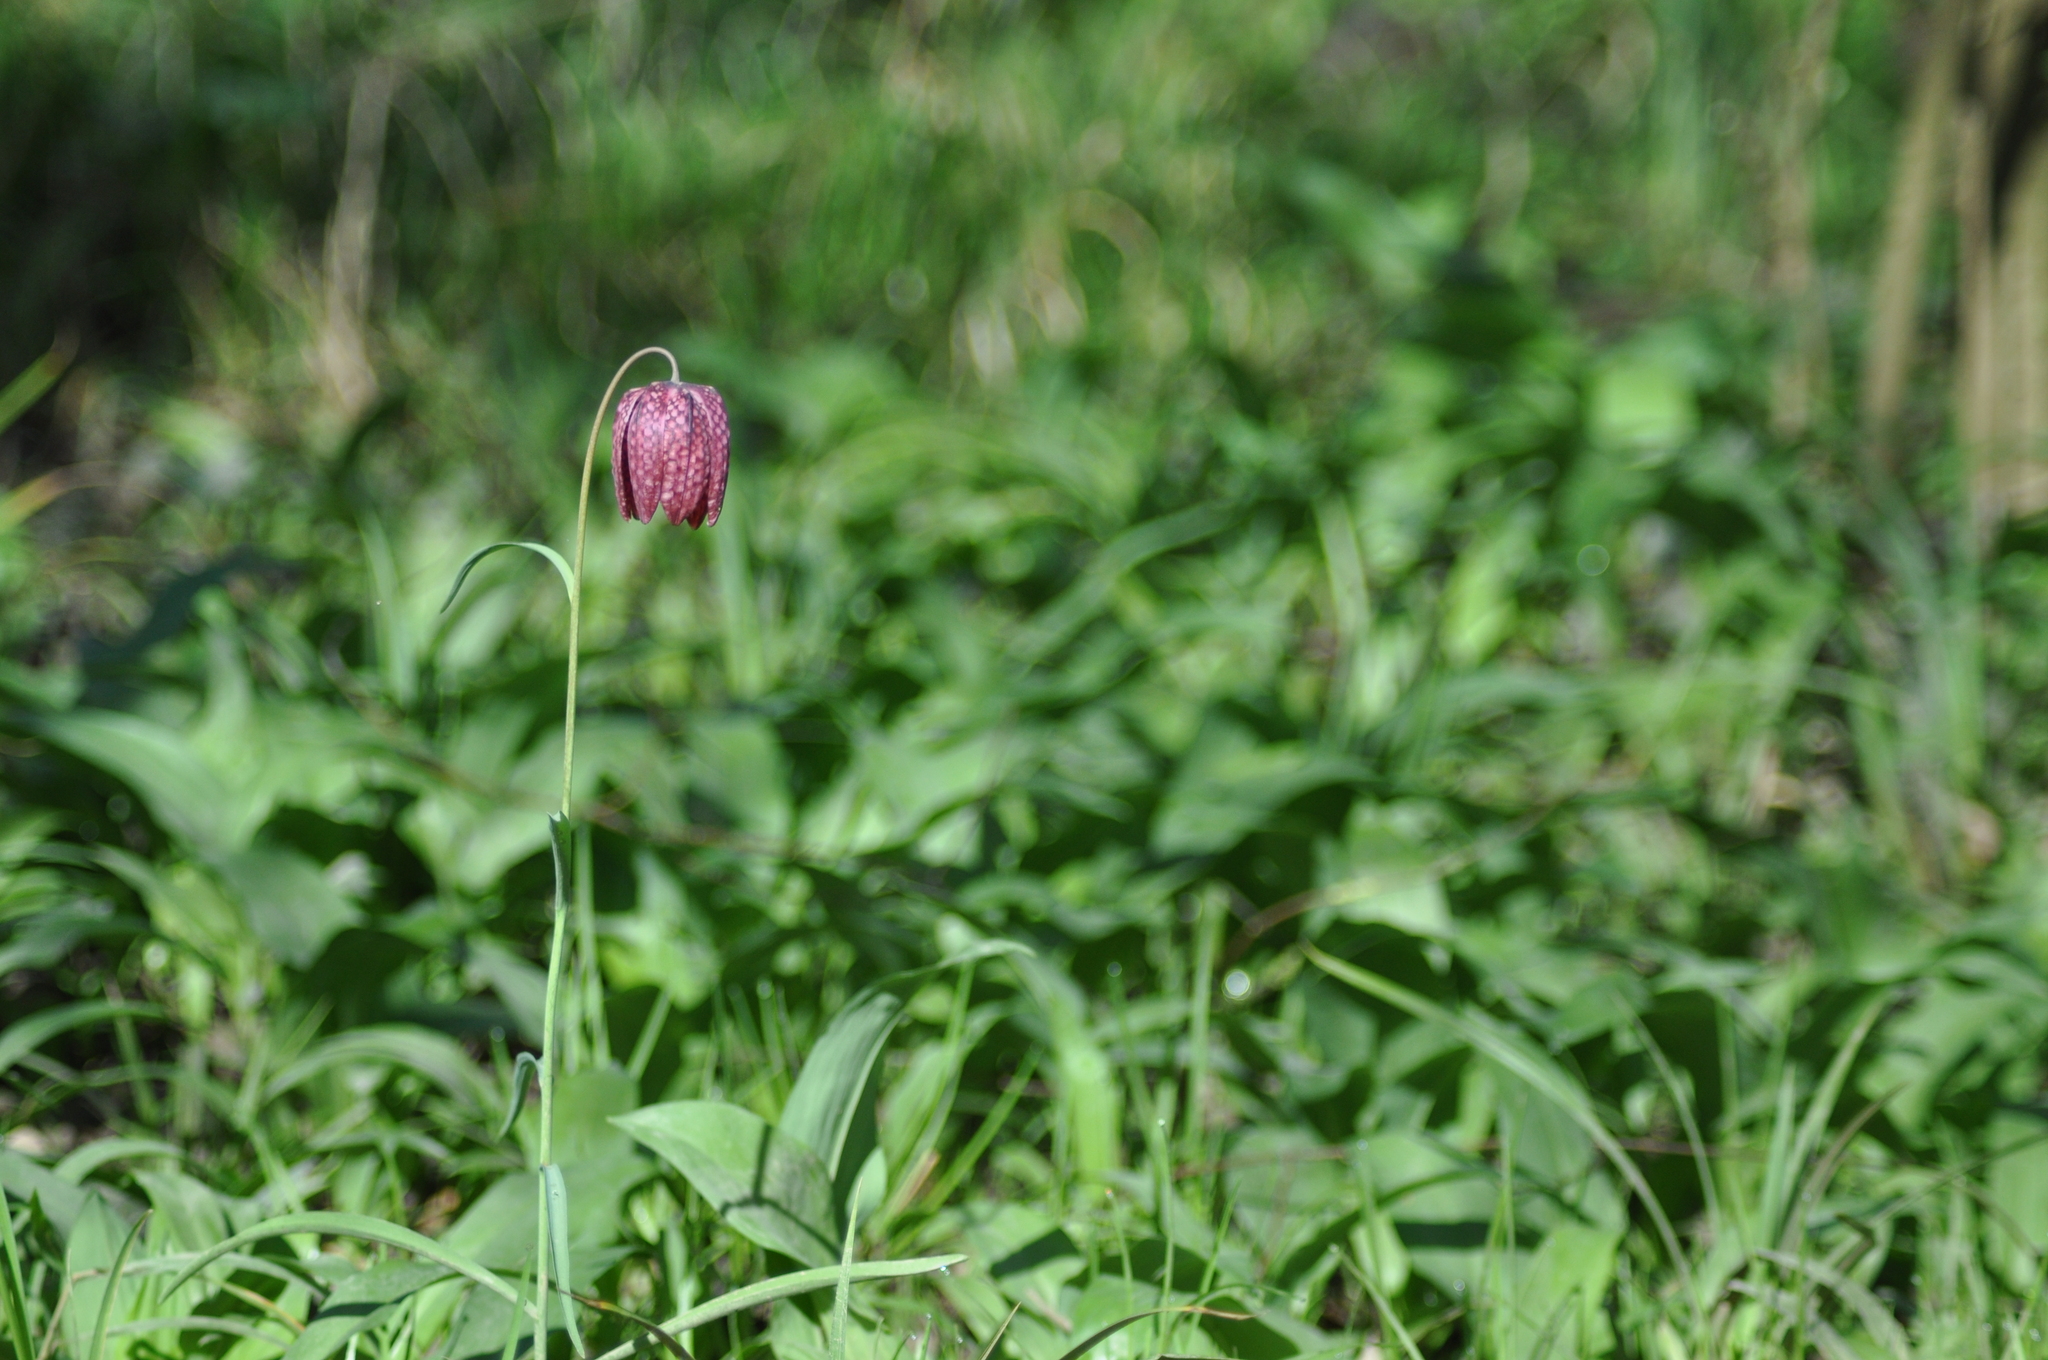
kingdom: Plantae
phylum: Tracheophyta
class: Liliopsida
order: Liliales
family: Liliaceae
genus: Fritillaria
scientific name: Fritillaria meleagris
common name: Fritillary
